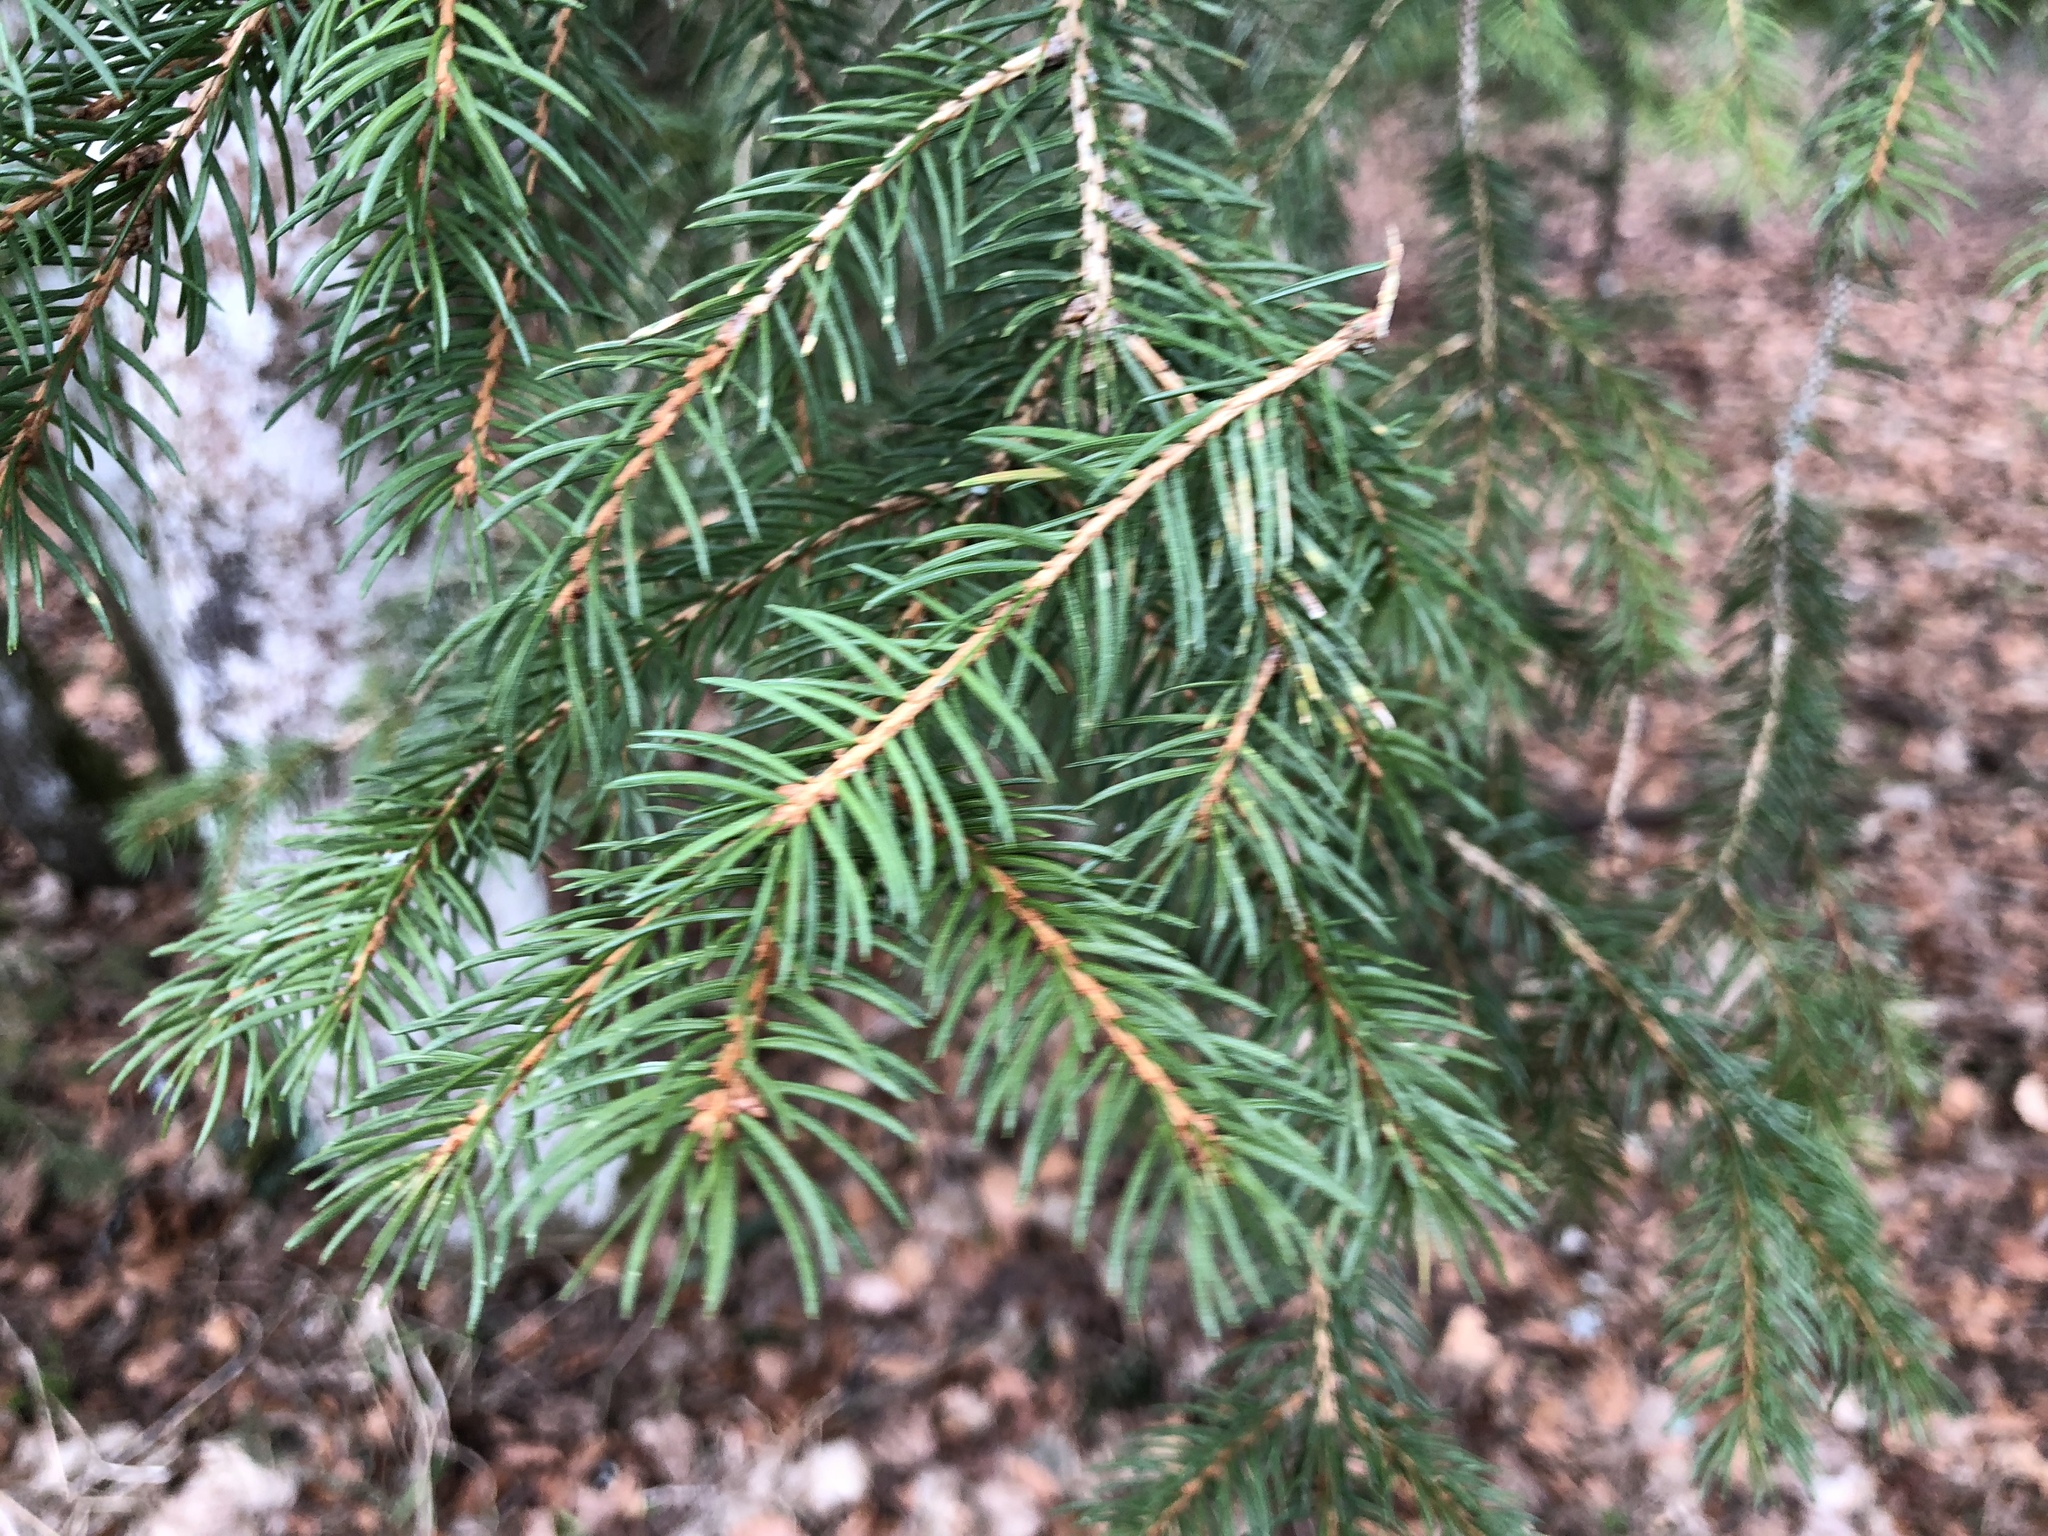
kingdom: Plantae
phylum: Tracheophyta
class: Pinopsida
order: Pinales
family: Pinaceae
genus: Picea
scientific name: Picea abies
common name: Norway spruce
